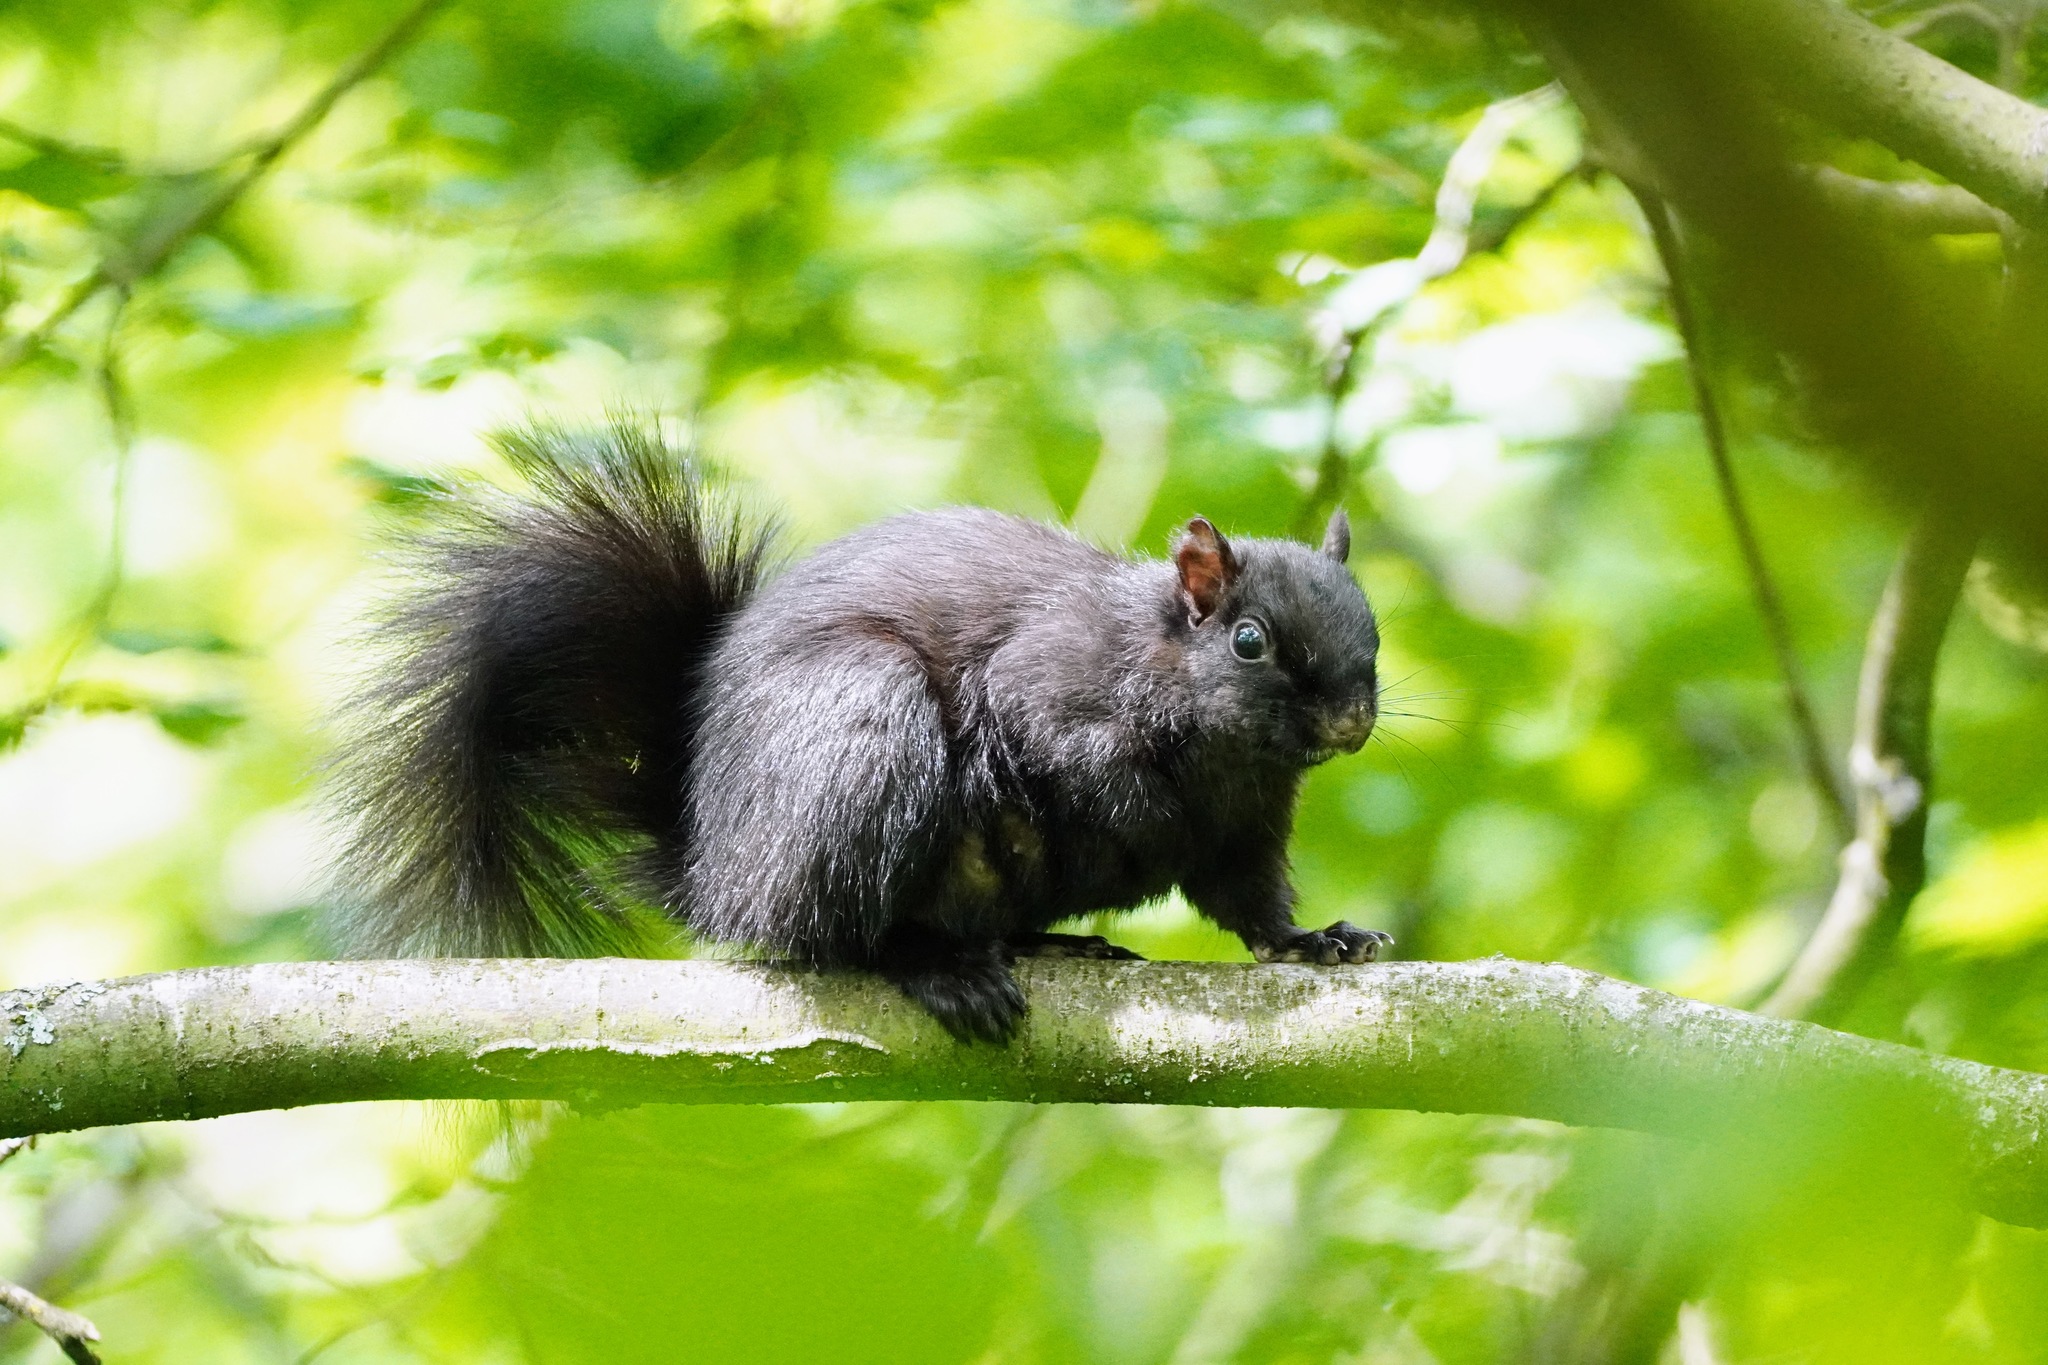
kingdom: Animalia
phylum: Chordata
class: Mammalia
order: Rodentia
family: Sciuridae
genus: Sciurus
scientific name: Sciurus carolinensis
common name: Eastern gray squirrel
